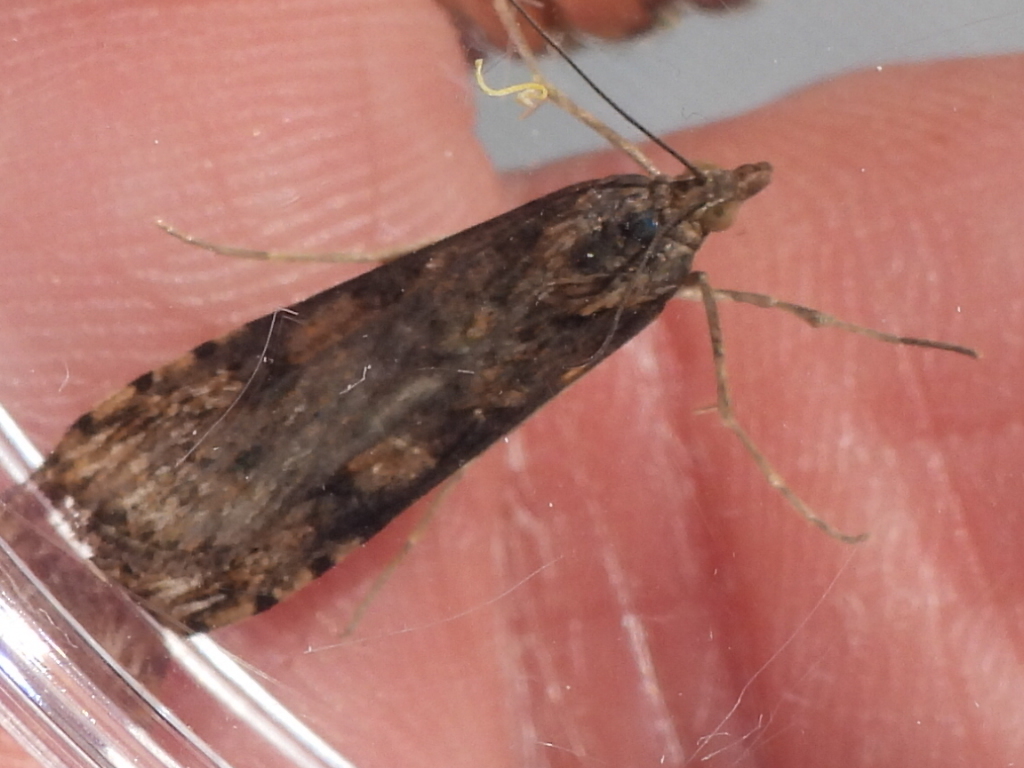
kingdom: Animalia
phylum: Arthropoda
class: Insecta
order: Lepidoptera
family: Crambidae
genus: Nomophila
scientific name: Nomophila nearctica
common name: American rush veneer
